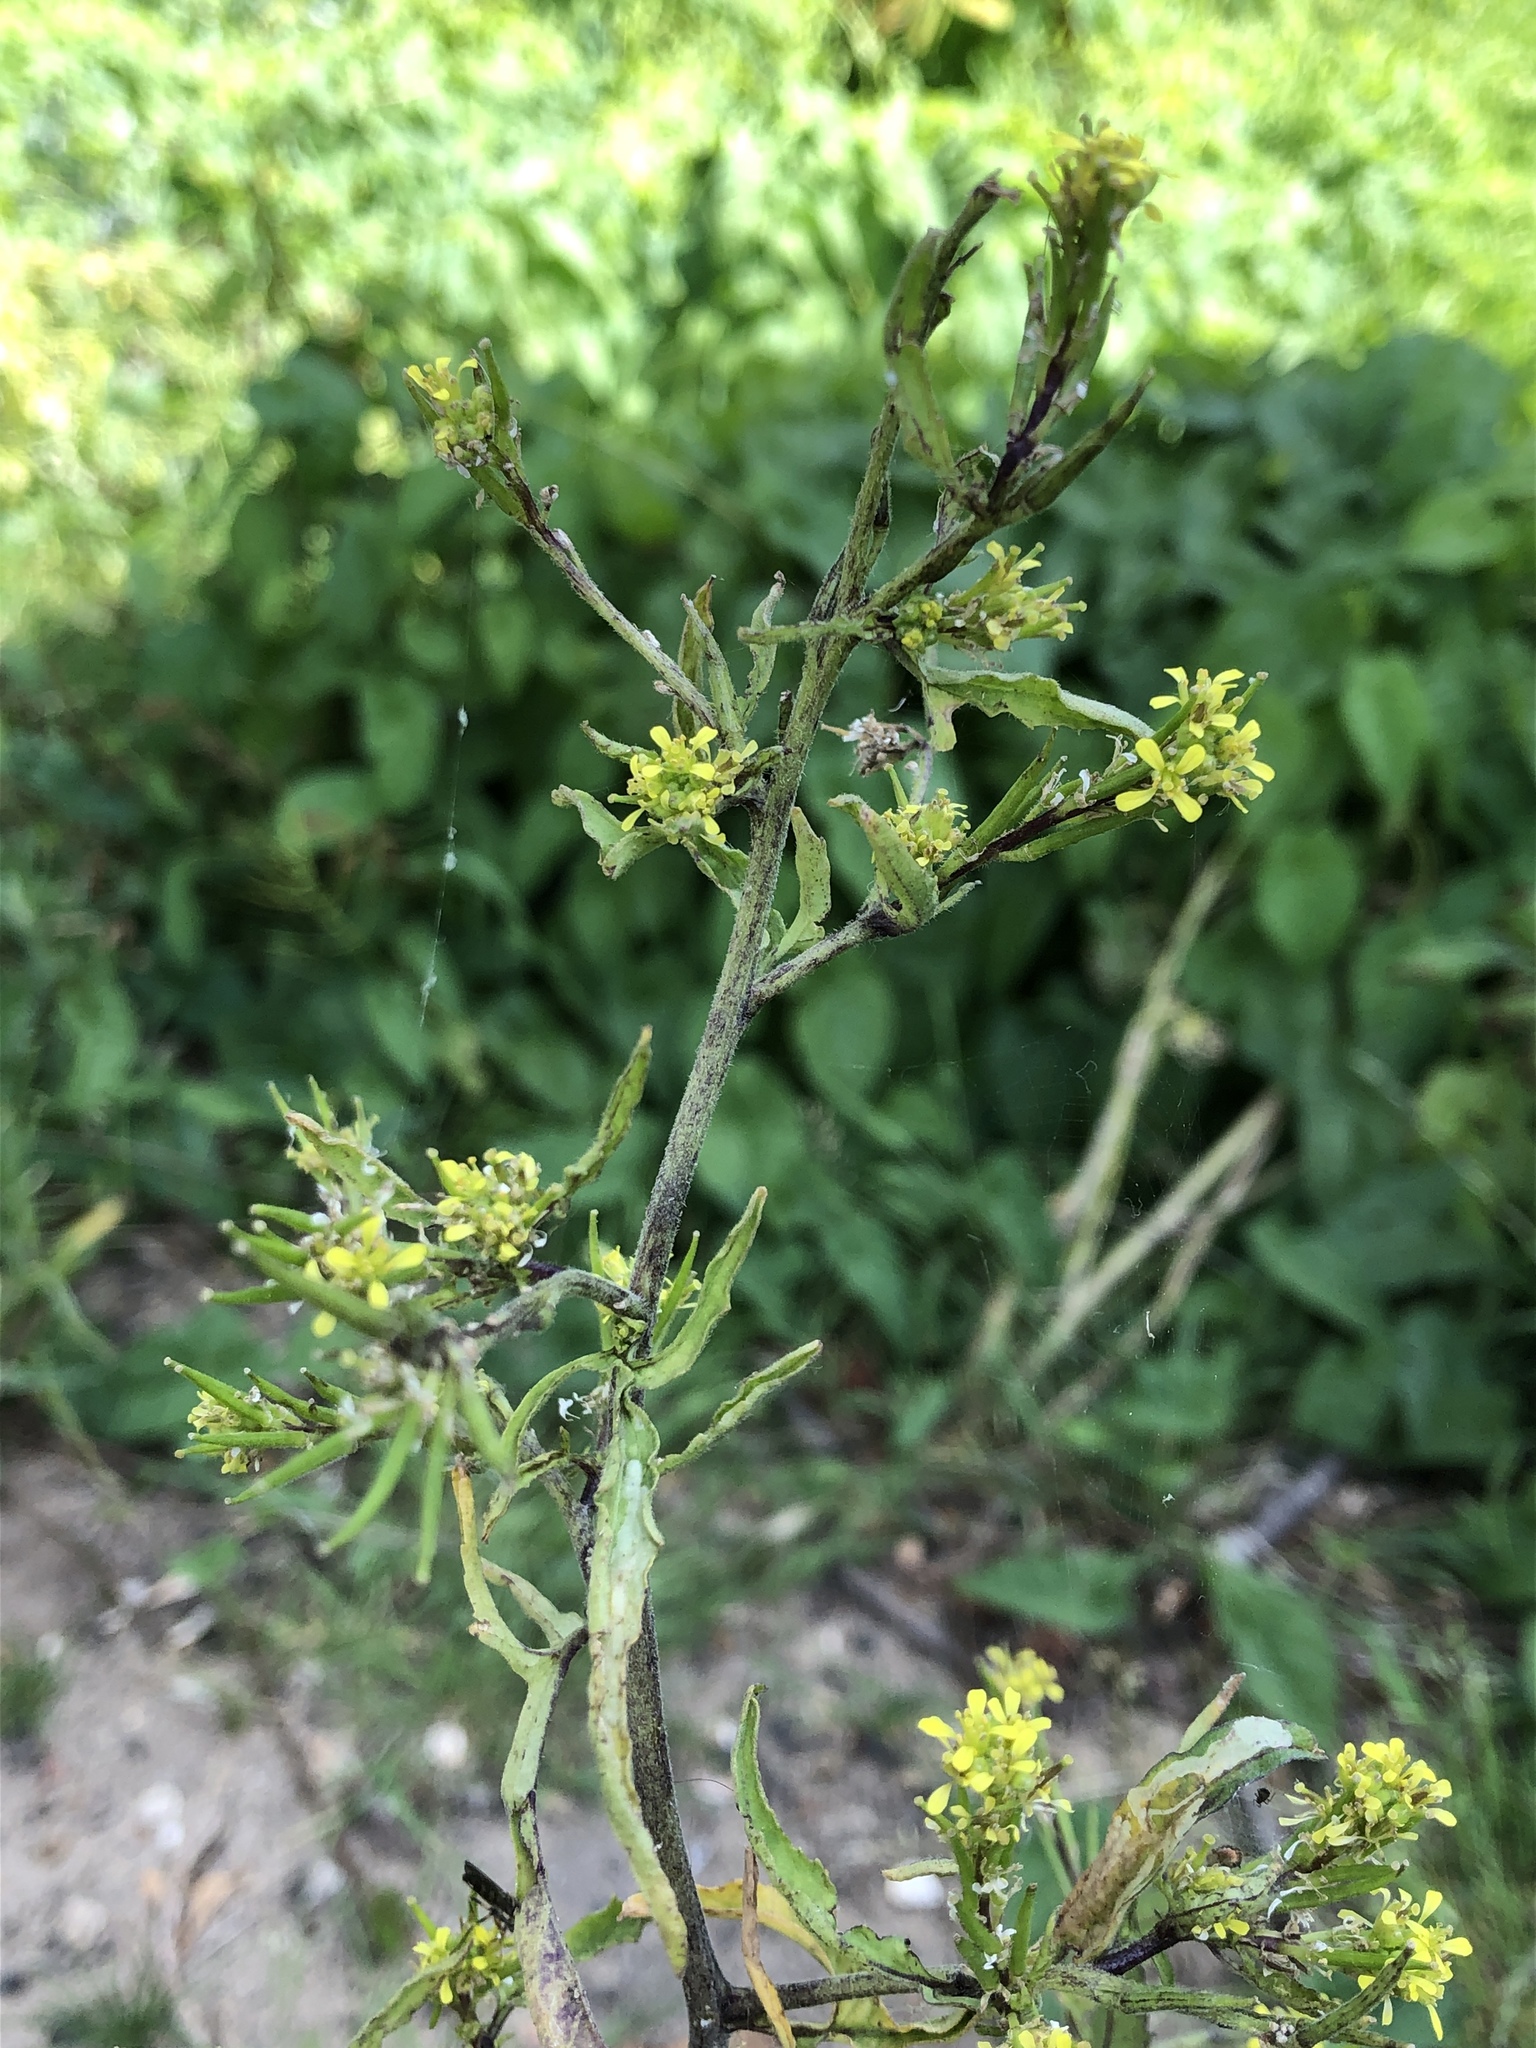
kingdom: Plantae
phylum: Tracheophyta
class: Magnoliopsida
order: Brassicales
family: Brassicaceae
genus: Sisymbrium
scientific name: Sisymbrium officinale
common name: Hedge mustard
